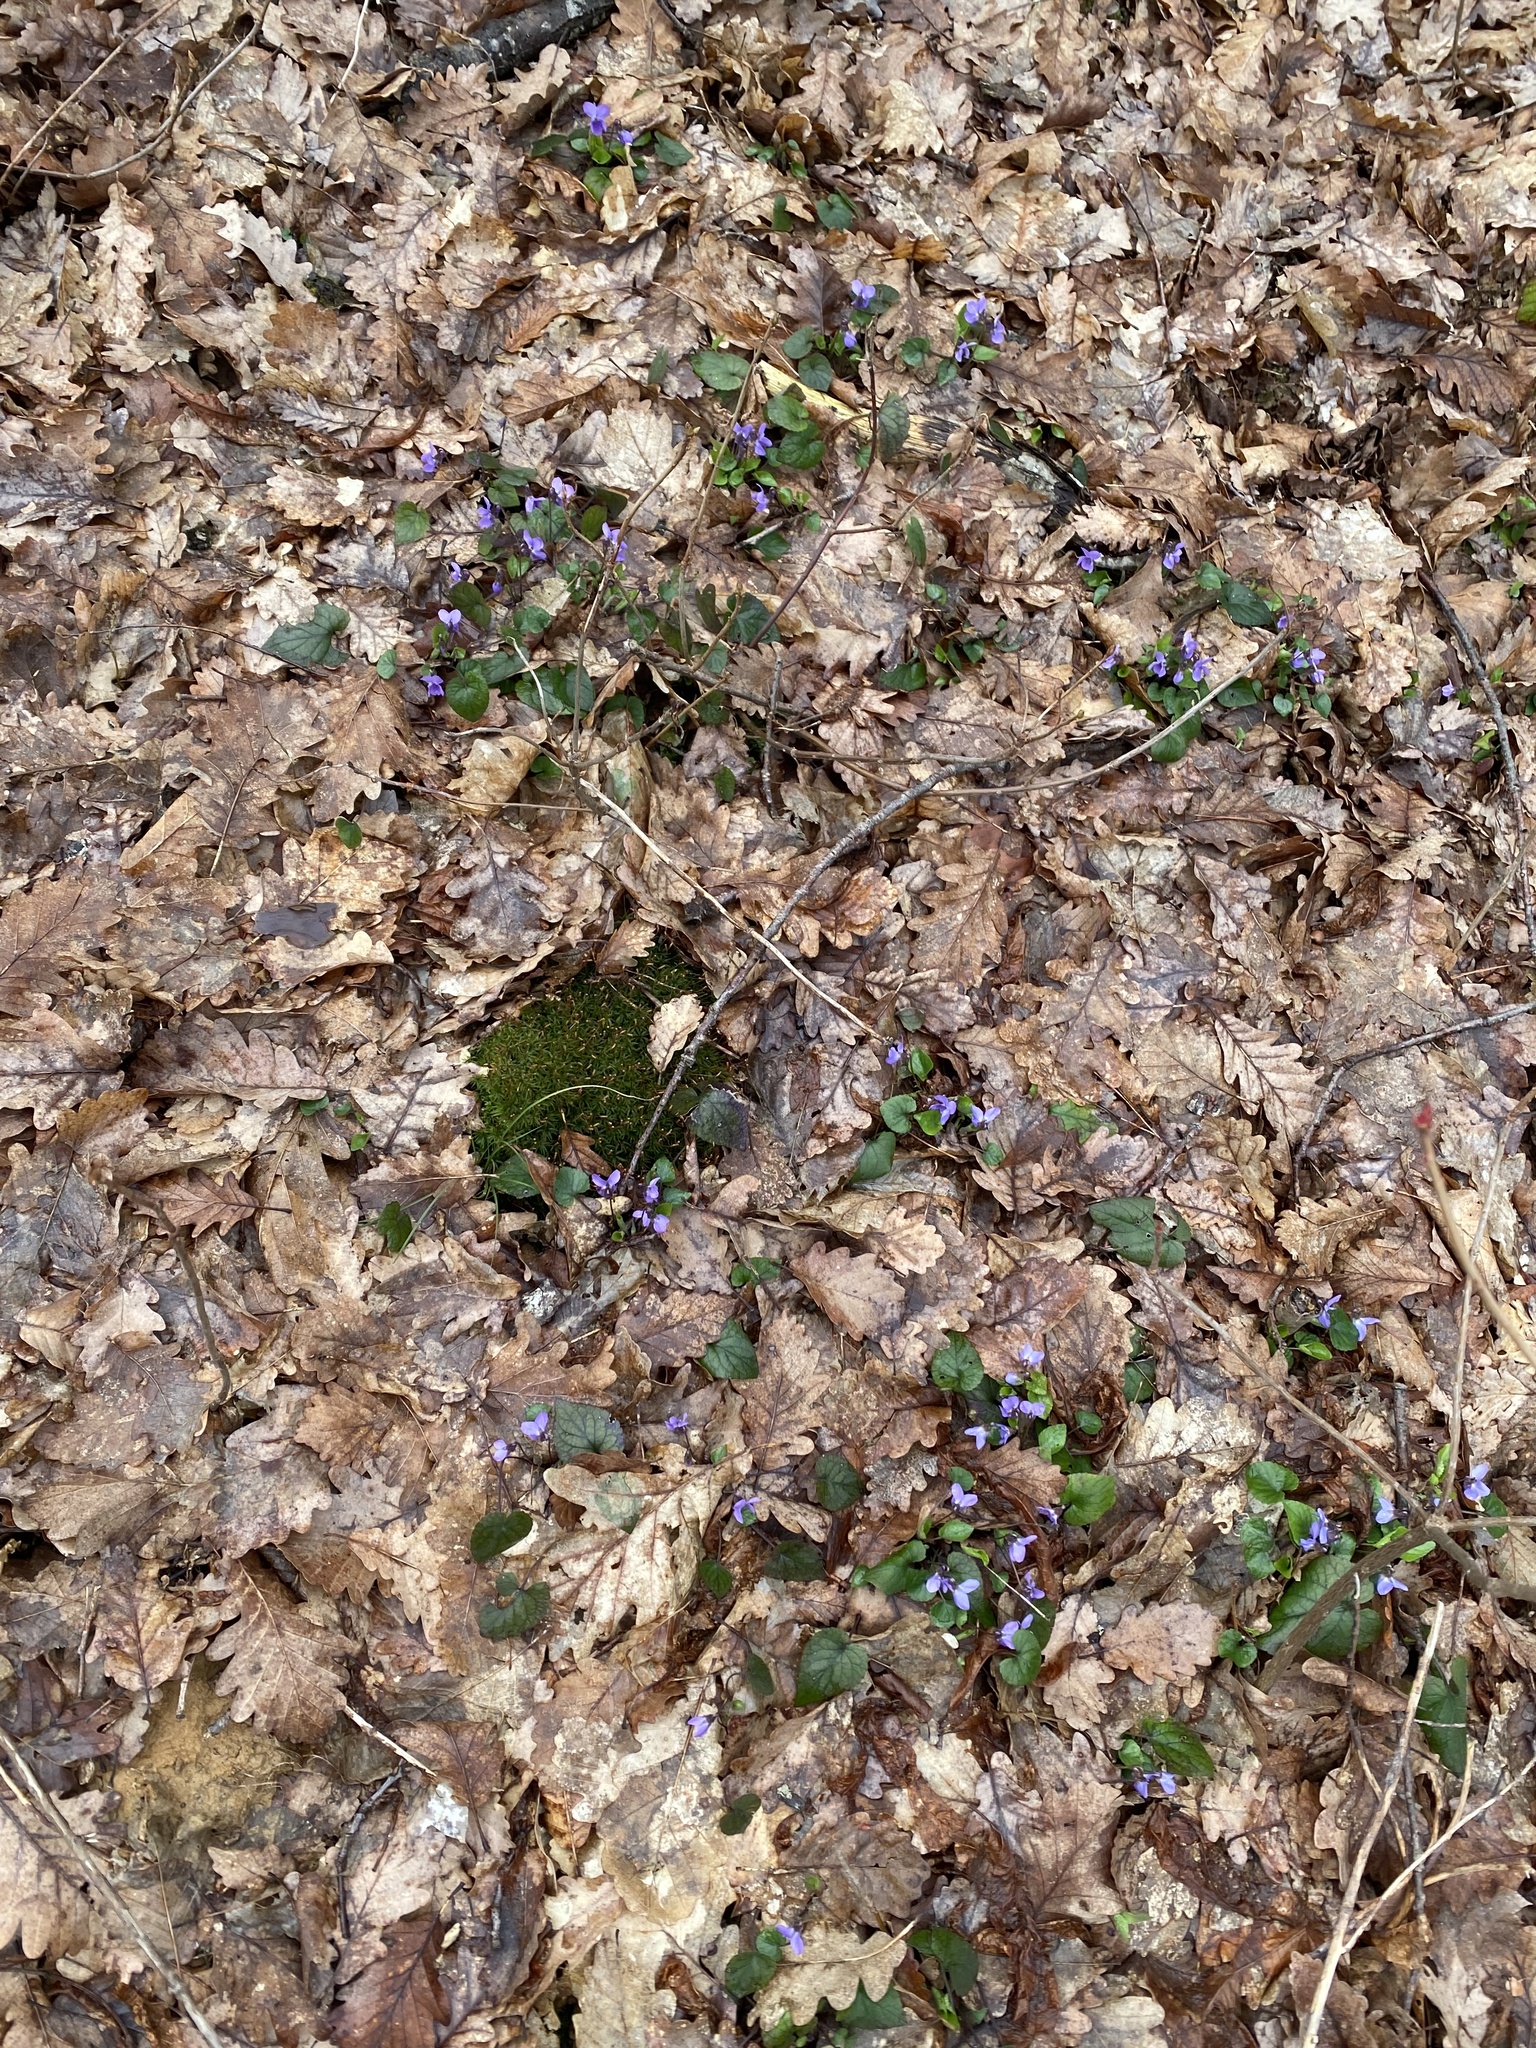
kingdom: Plantae
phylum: Tracheophyta
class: Magnoliopsida
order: Malpighiales
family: Violaceae
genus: Viola
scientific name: Viola alba
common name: White violet
